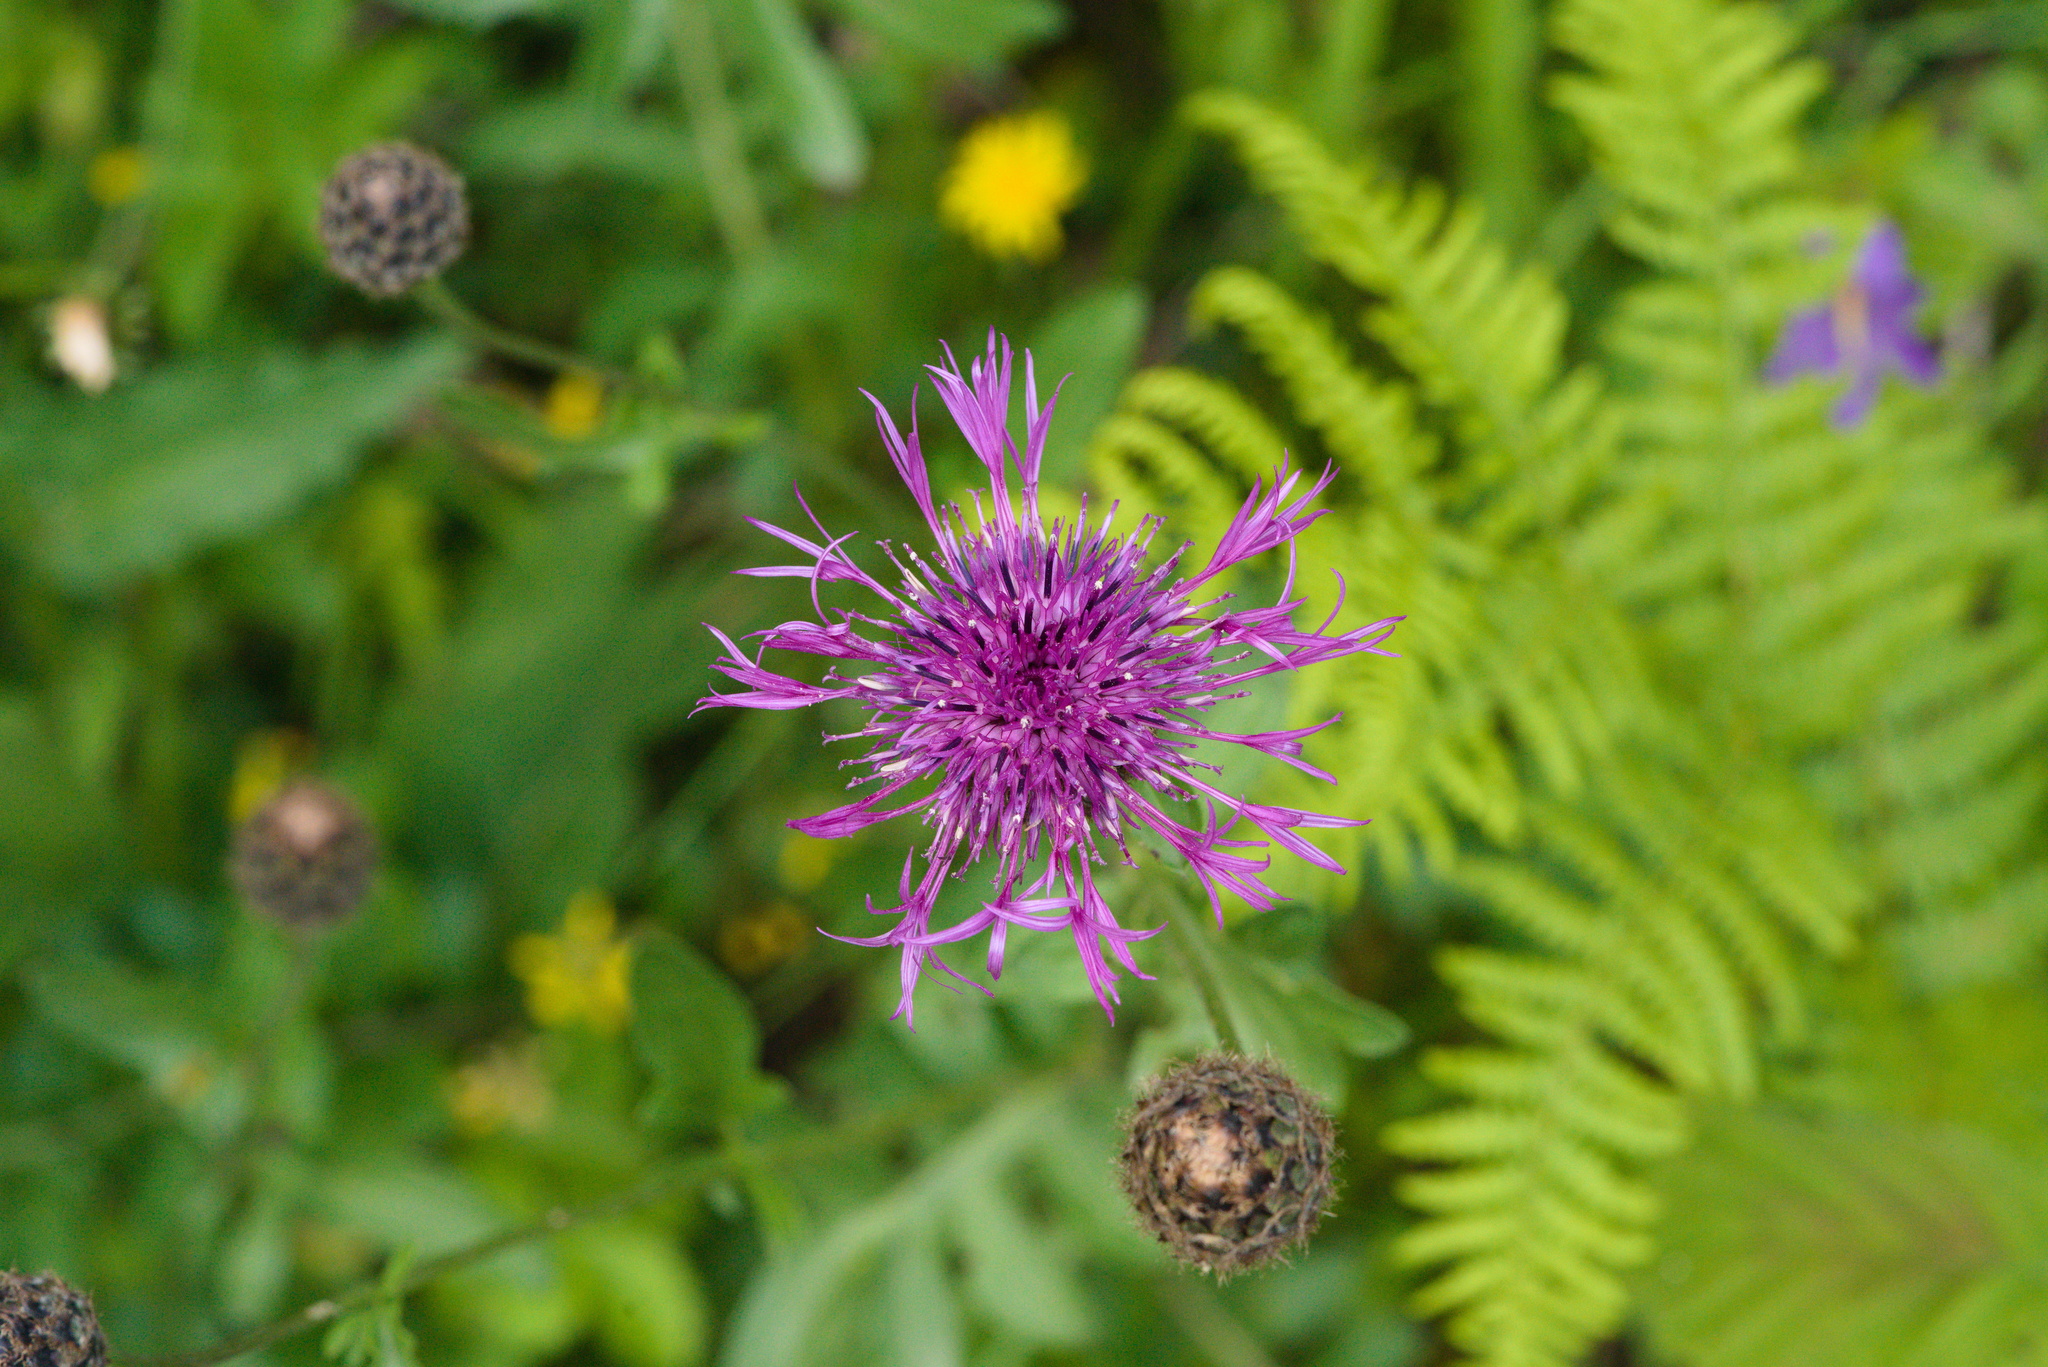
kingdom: Plantae
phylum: Tracheophyta
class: Magnoliopsida
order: Asterales
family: Asteraceae
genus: Centaurea
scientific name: Centaurea scabiosa
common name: Greater knapweed
